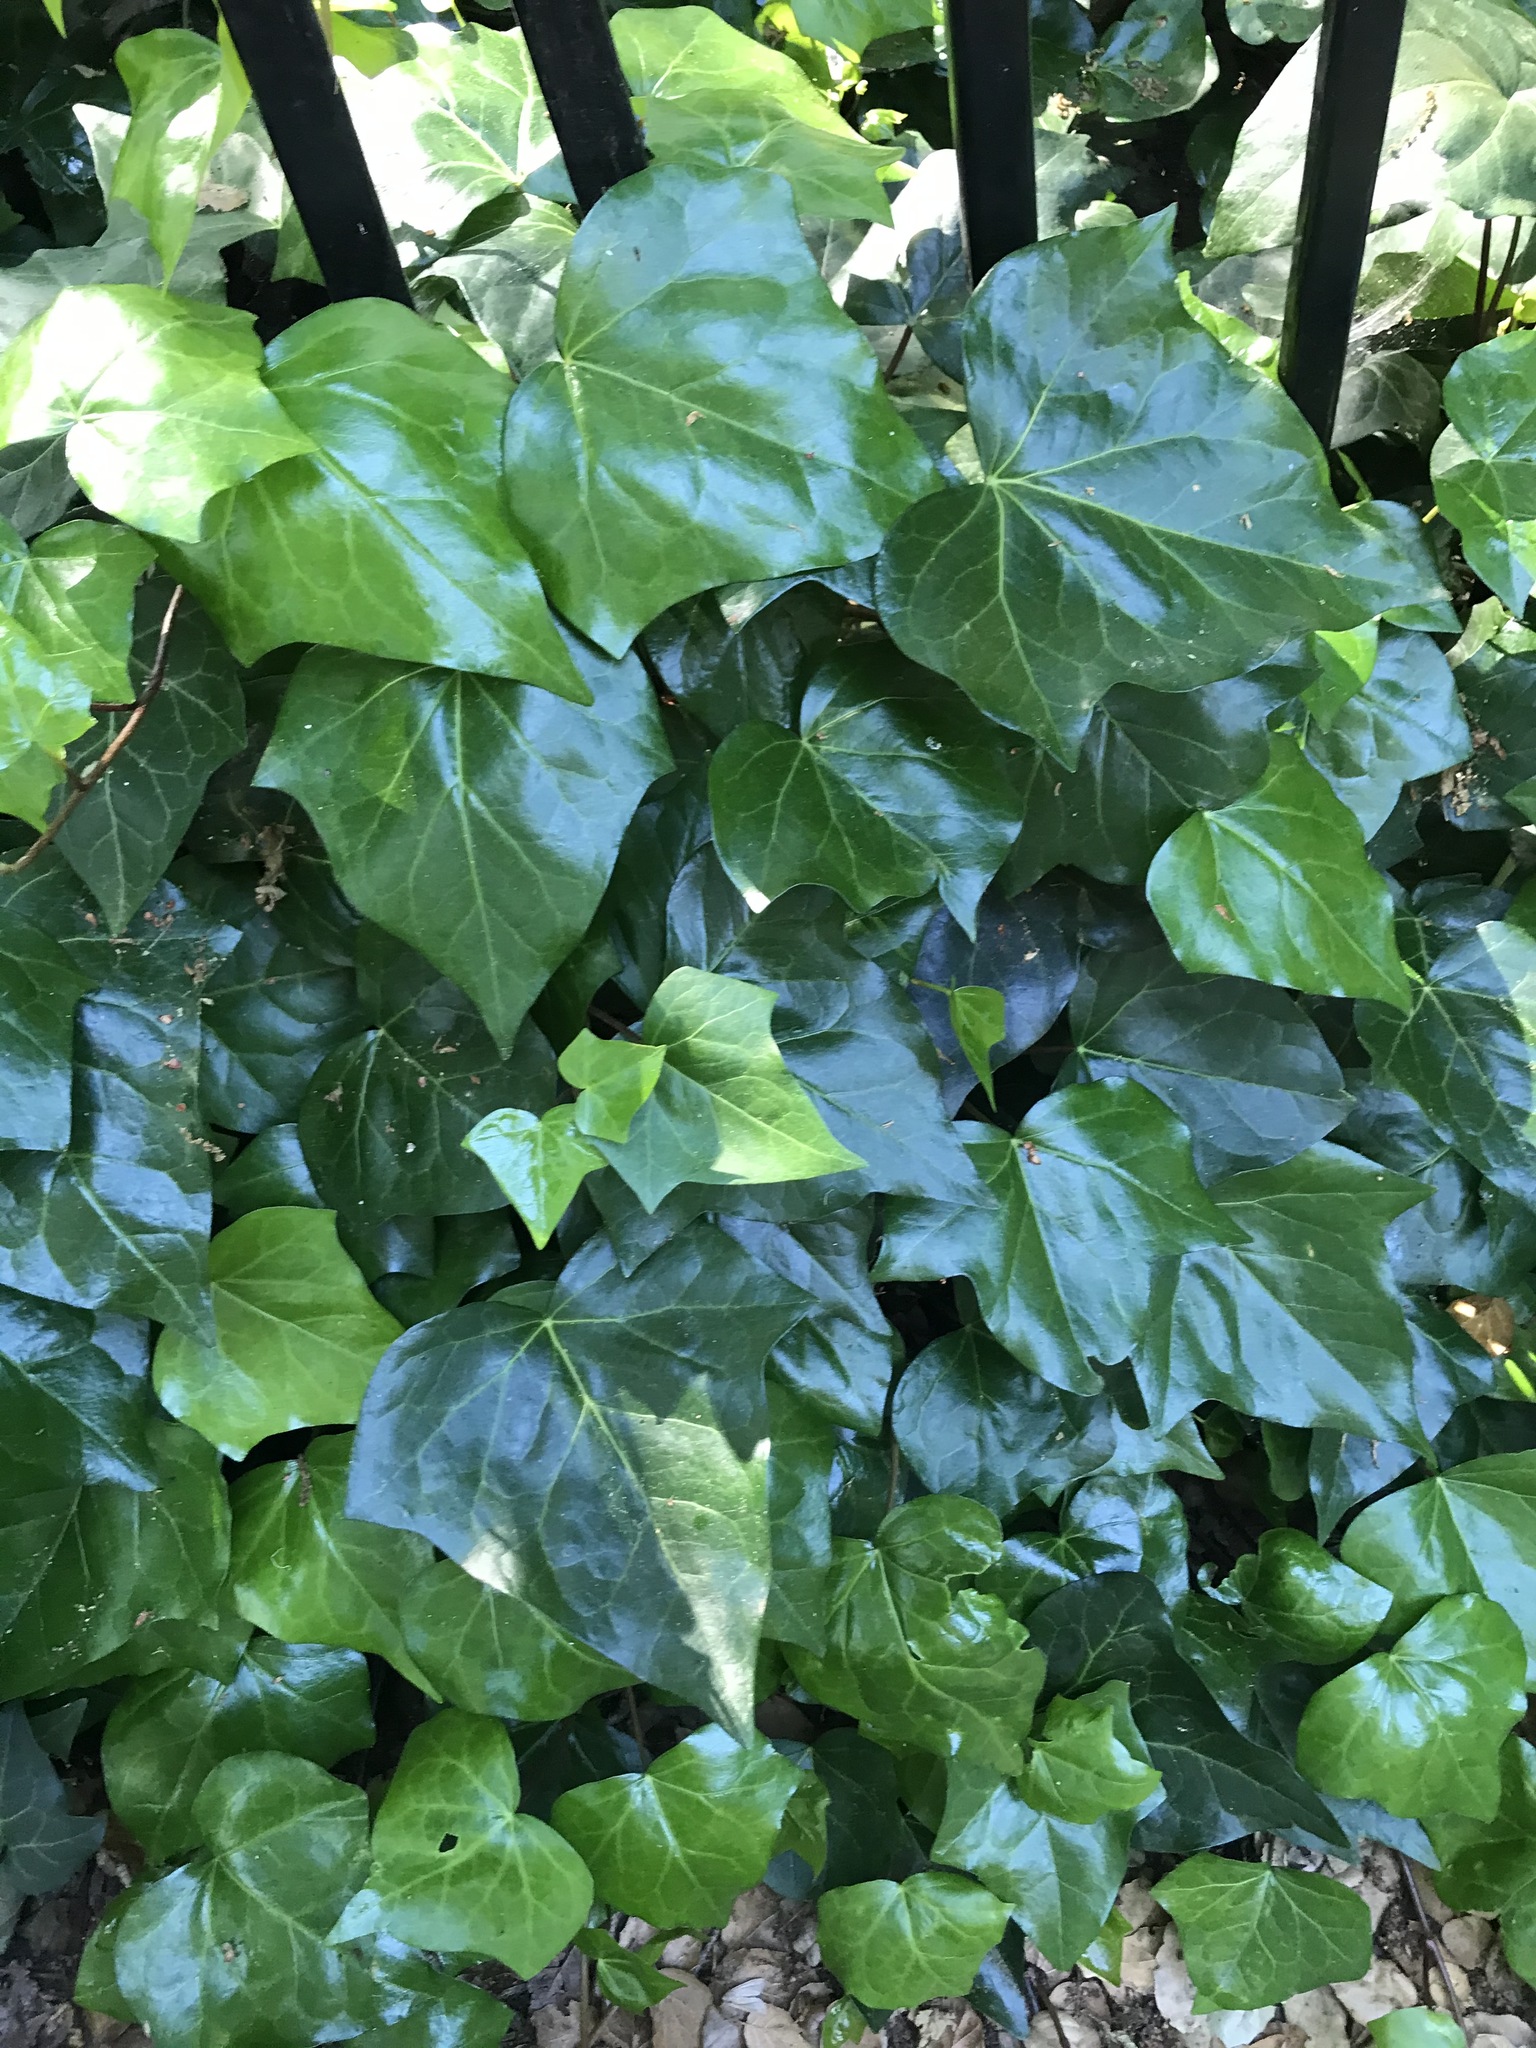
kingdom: Plantae
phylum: Tracheophyta
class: Magnoliopsida
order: Apiales
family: Araliaceae
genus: Hedera
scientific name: Hedera helix
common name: Ivy
